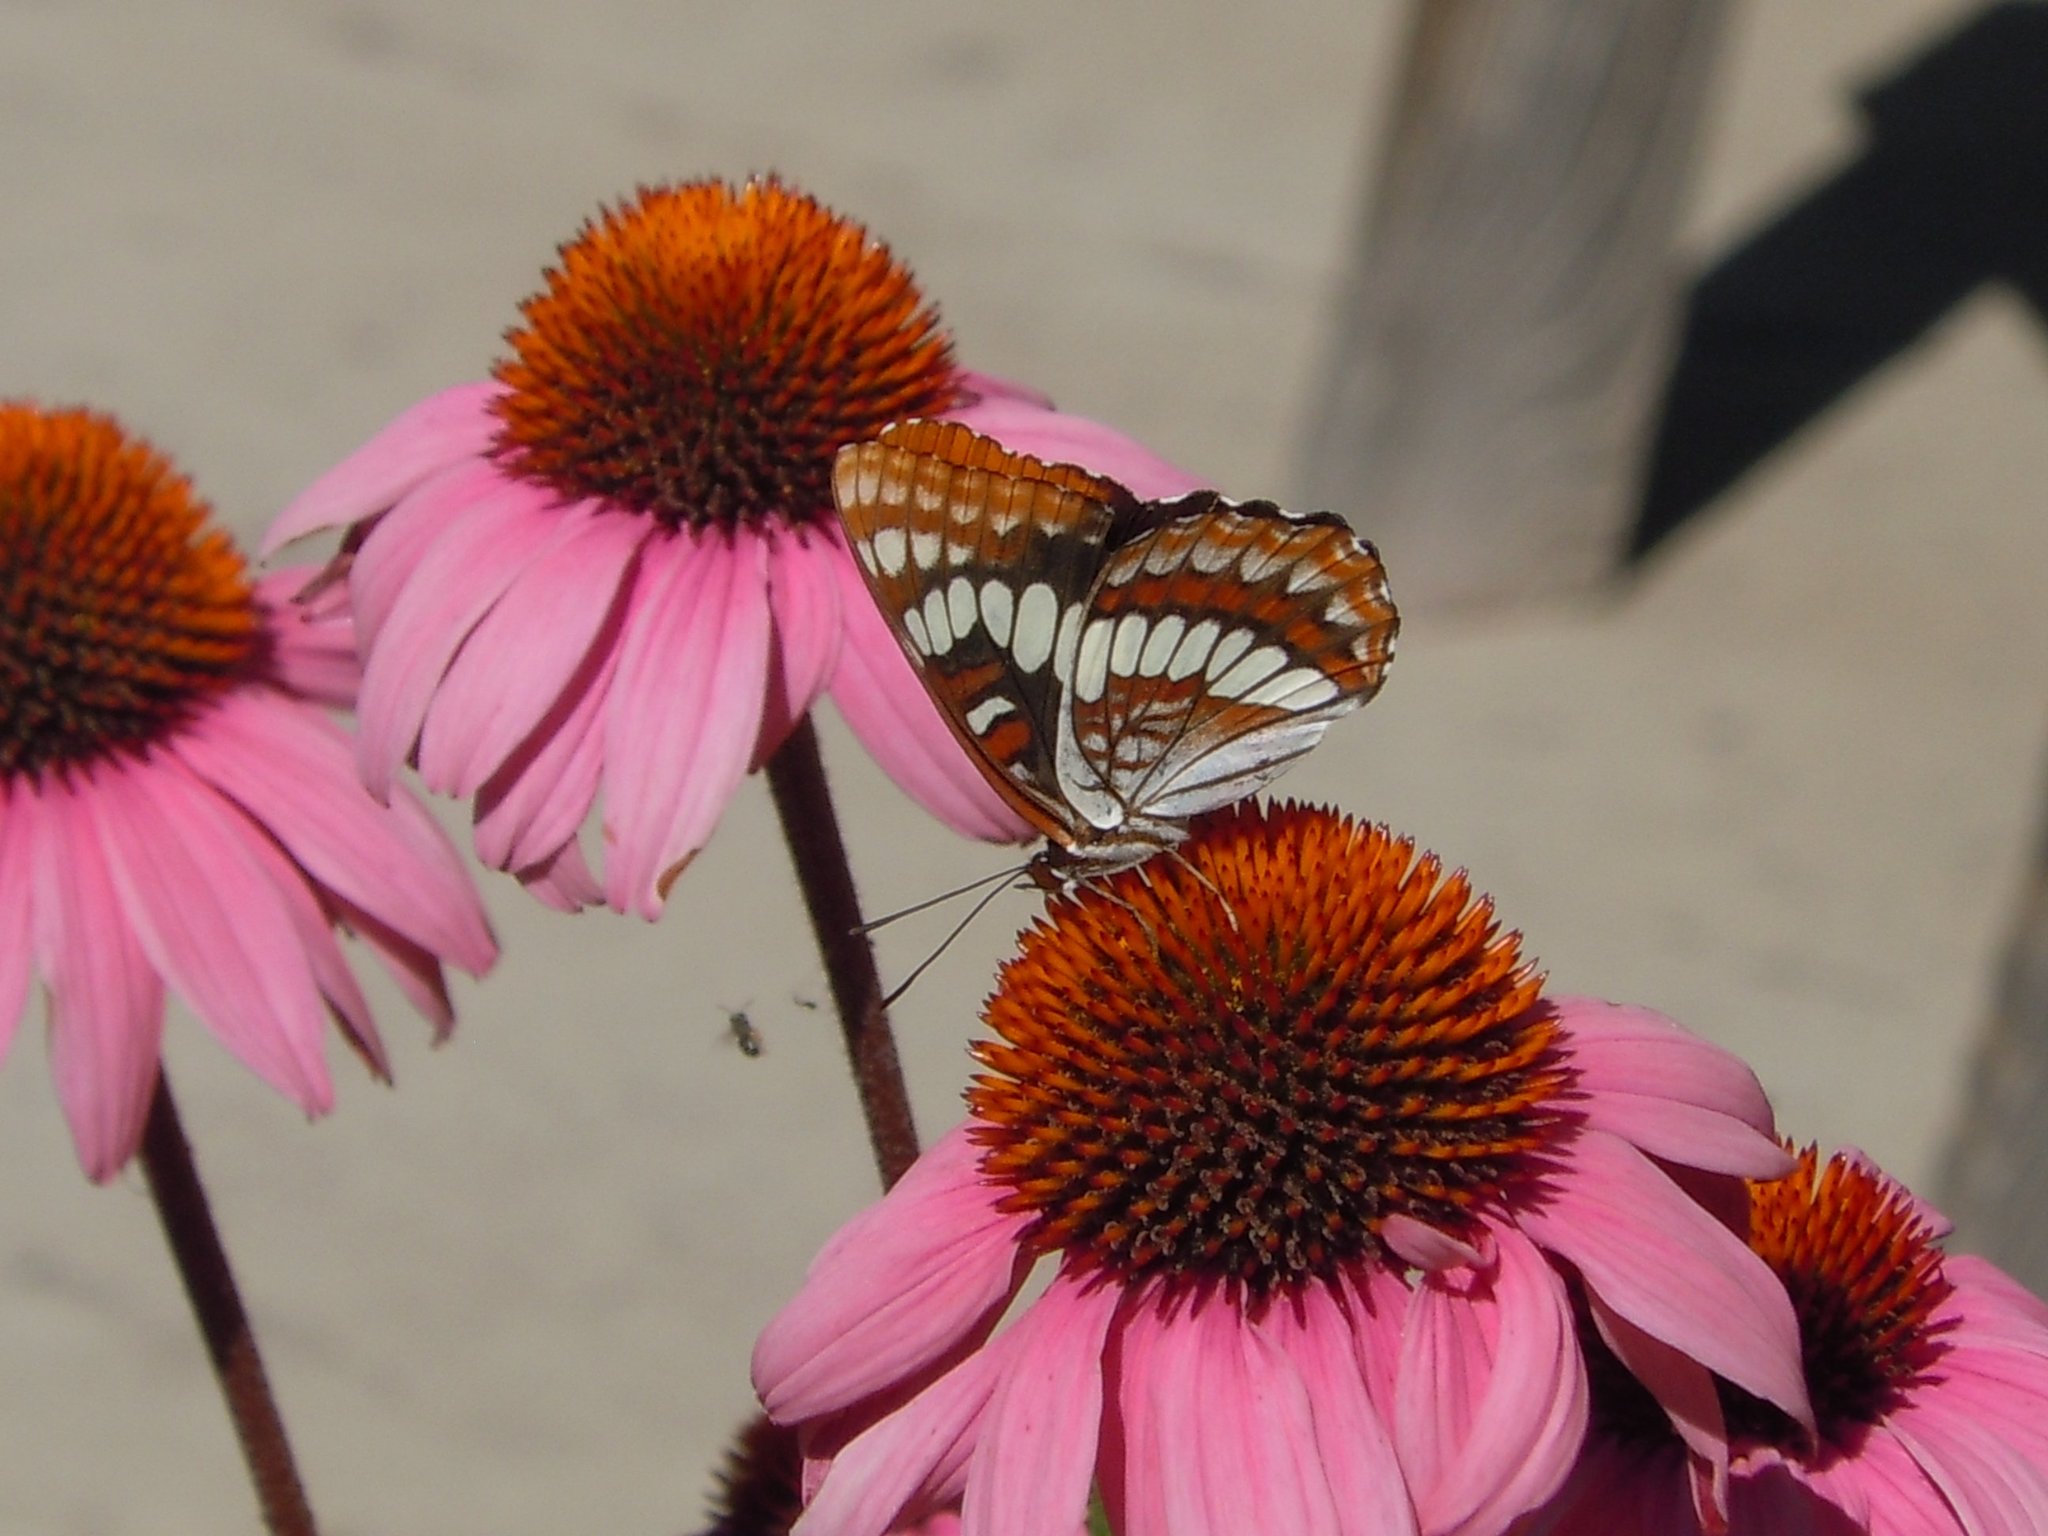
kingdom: Animalia
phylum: Arthropoda
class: Insecta
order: Lepidoptera
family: Nymphalidae
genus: Limenitis
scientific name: Limenitis lorquini
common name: Lorquin's admiral
